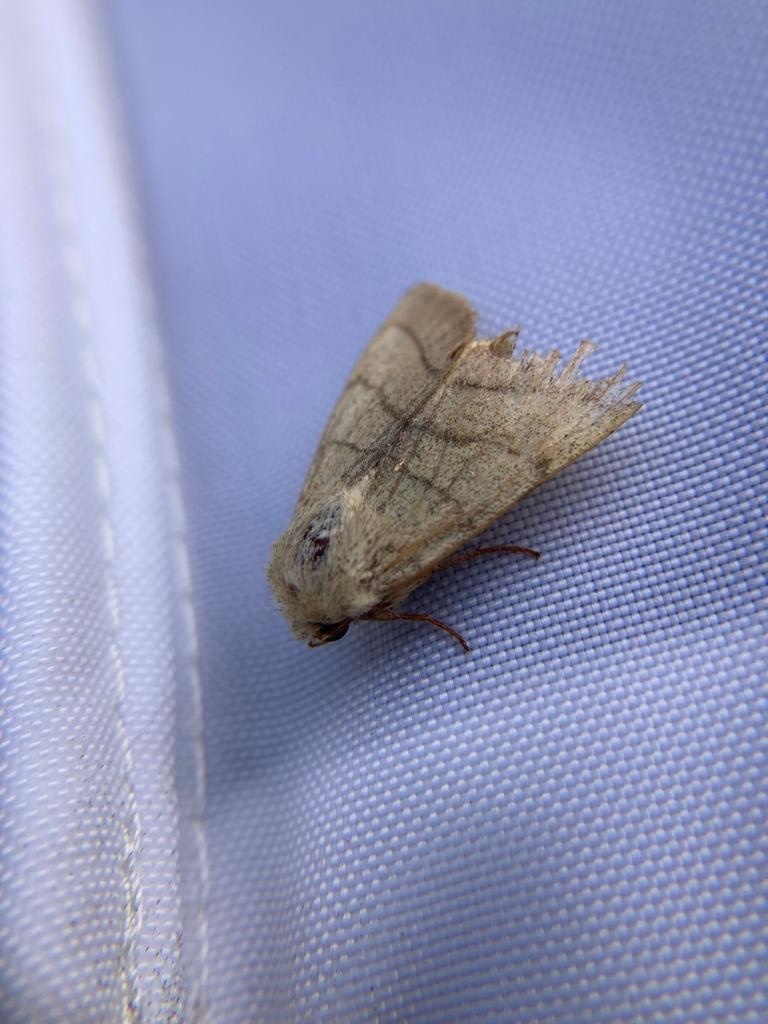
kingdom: Animalia
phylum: Arthropoda
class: Insecta
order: Lepidoptera
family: Noctuidae
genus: Charanyca
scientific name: Charanyca trigrammica
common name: Treble lines
